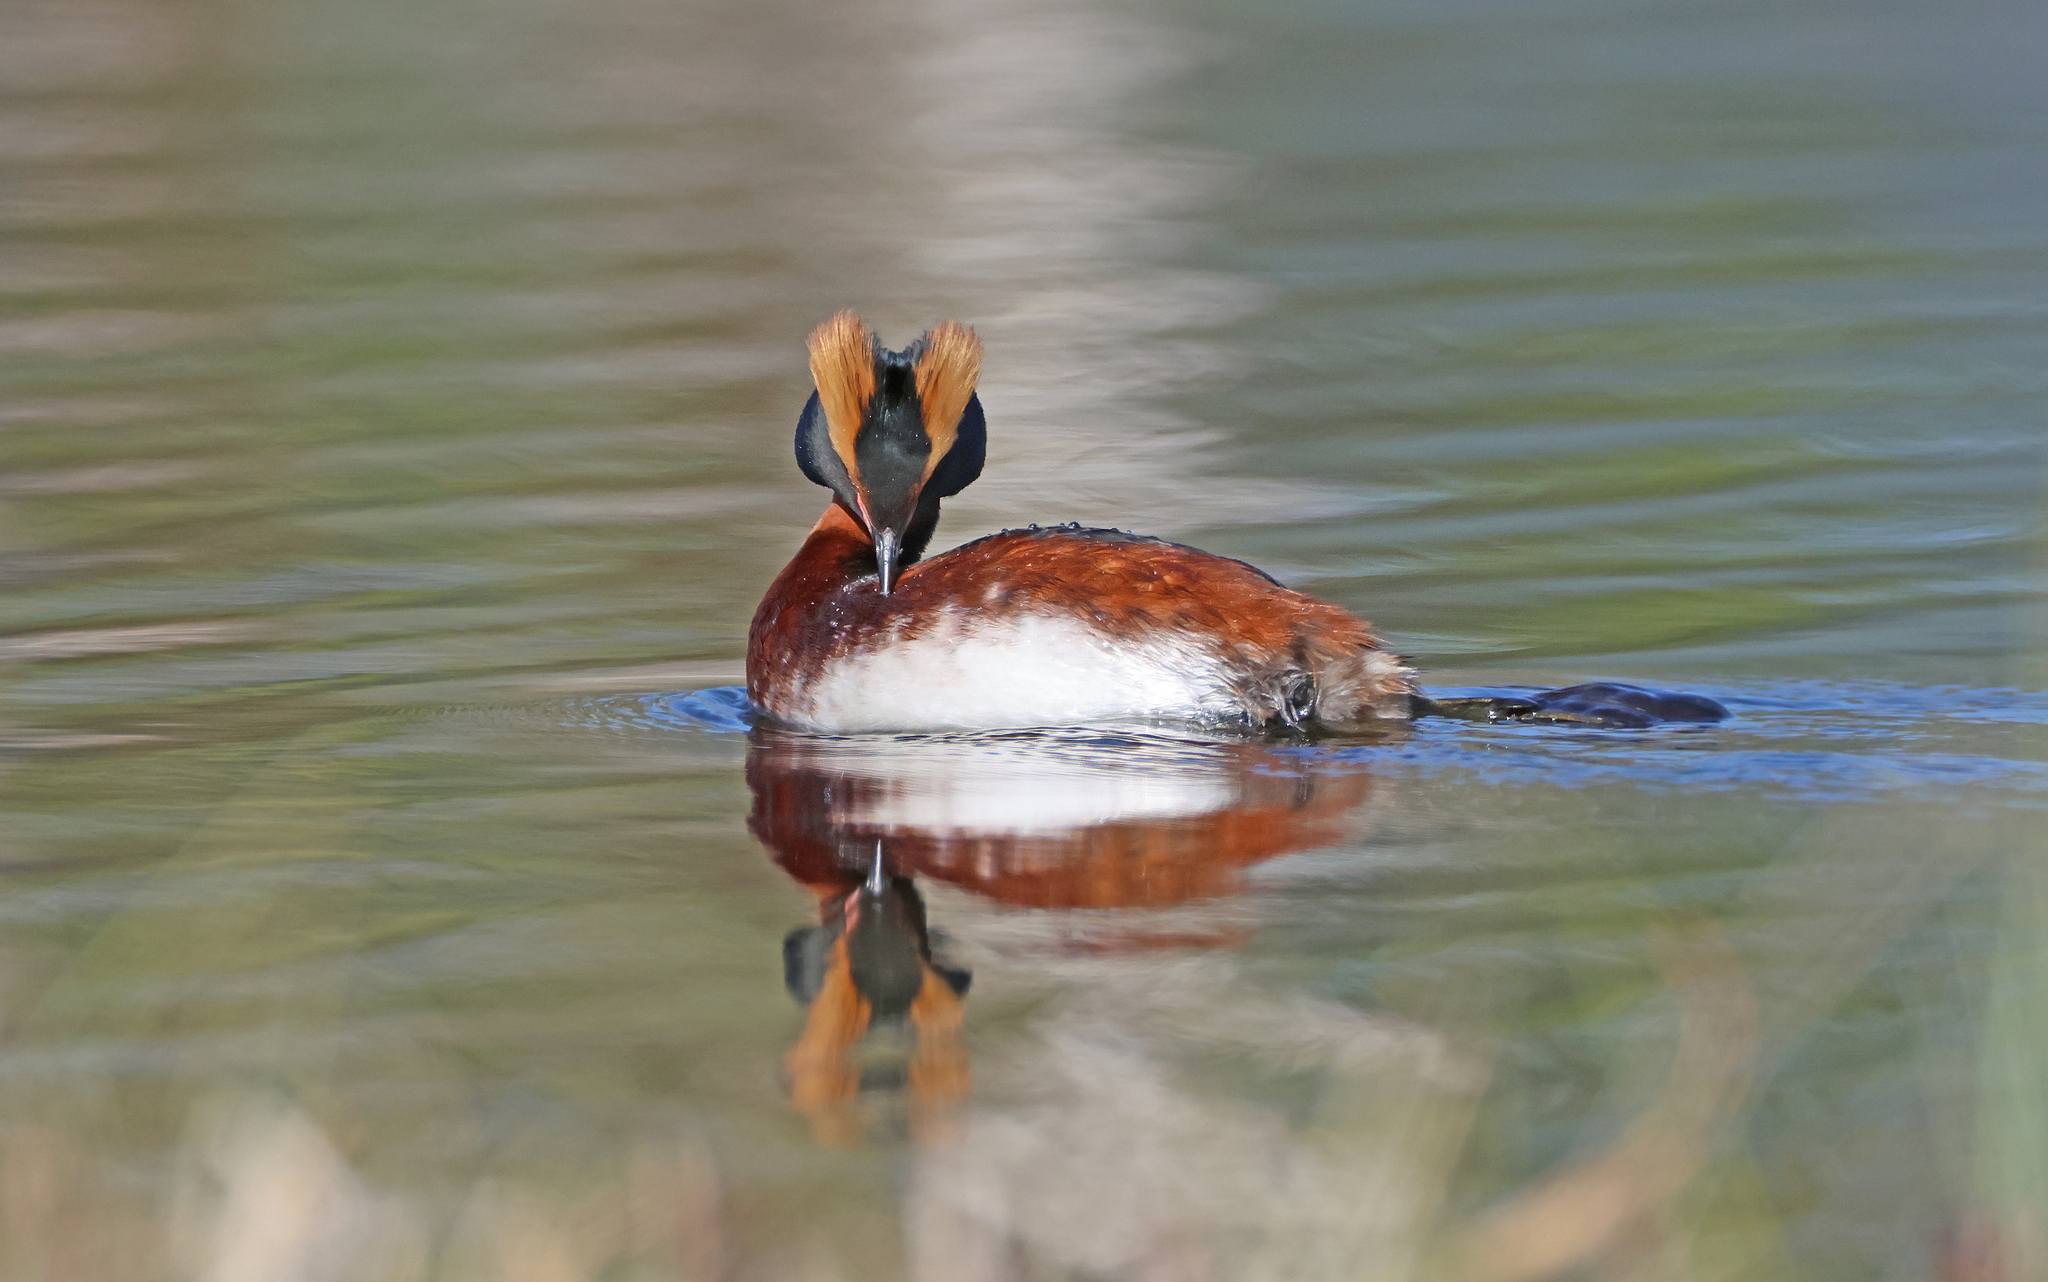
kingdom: Animalia
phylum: Chordata
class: Aves
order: Podicipediformes
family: Podicipedidae
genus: Podiceps
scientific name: Podiceps auritus
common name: Horned grebe
